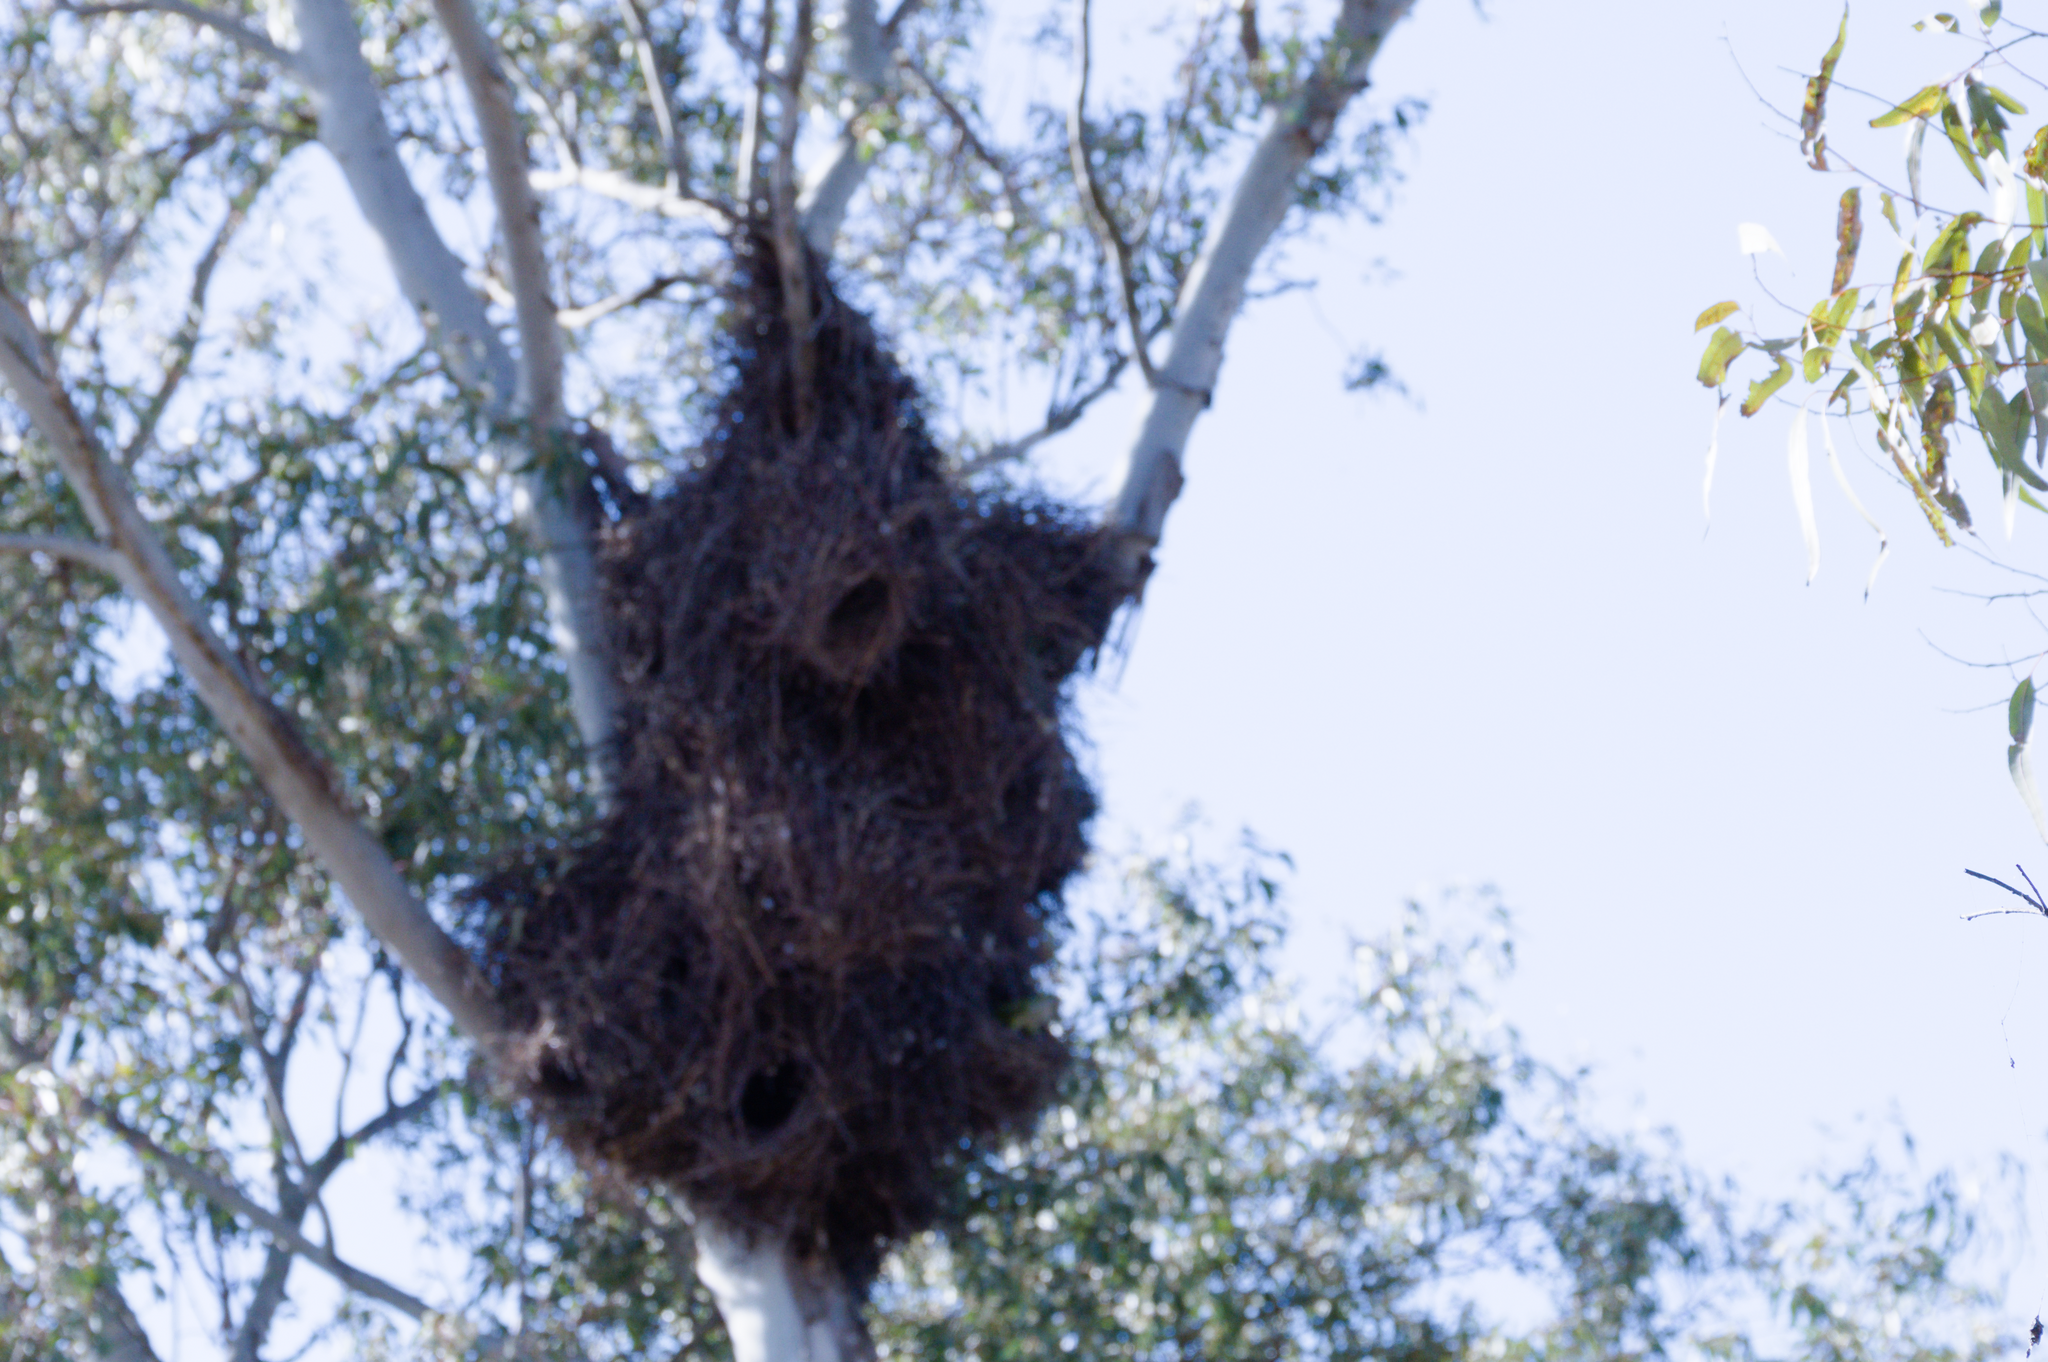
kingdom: Animalia
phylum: Chordata
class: Aves
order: Psittaciformes
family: Psittacidae
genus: Myiopsitta
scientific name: Myiopsitta monachus
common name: Monk parakeet
